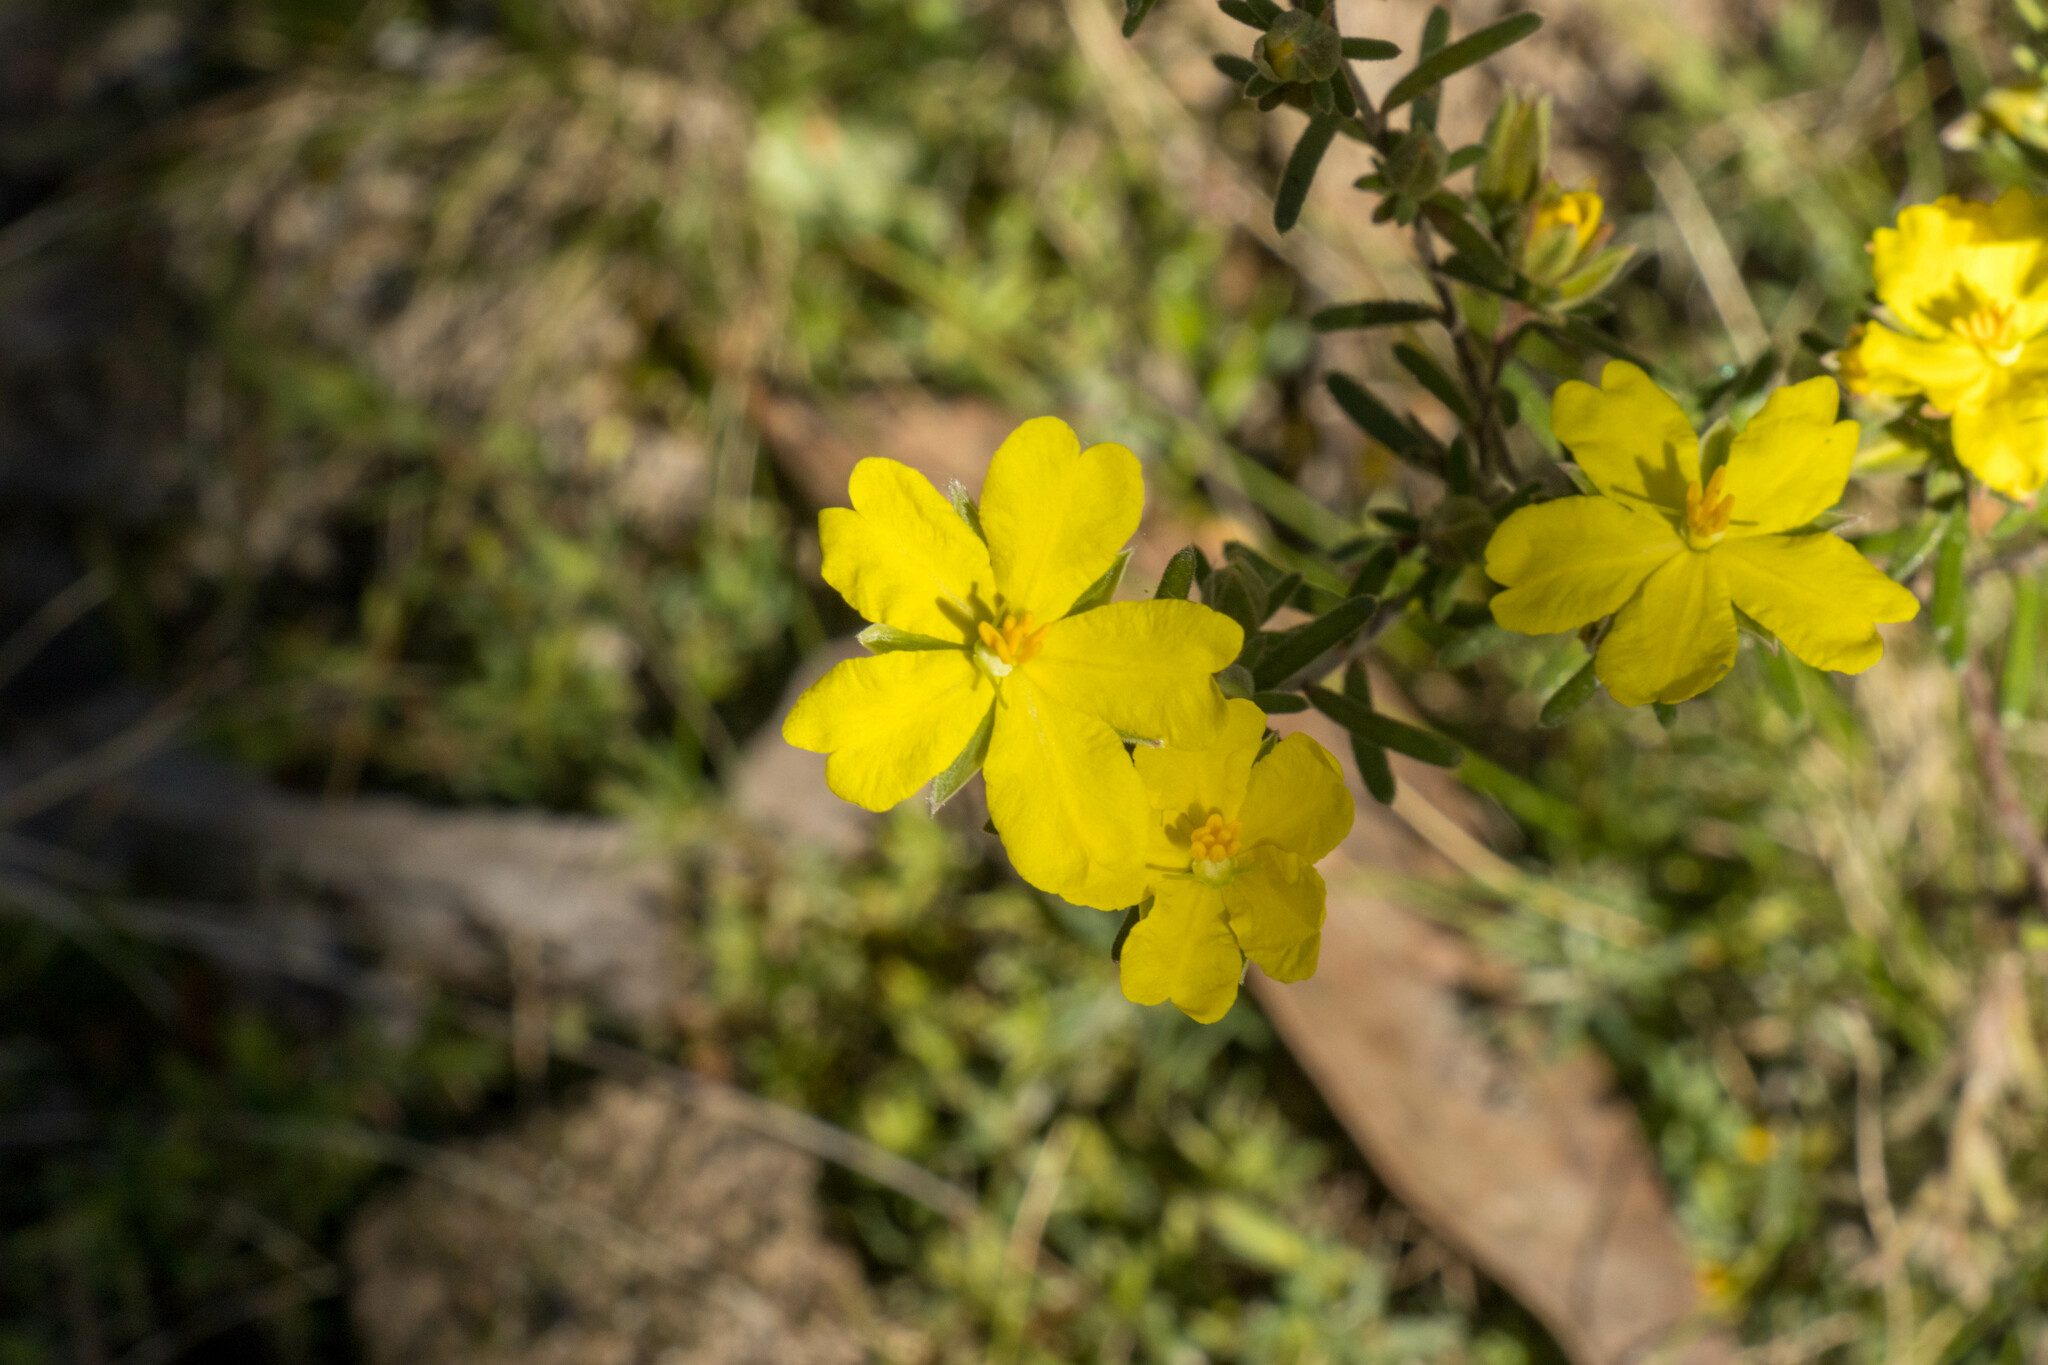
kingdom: Plantae
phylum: Tracheophyta
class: Magnoliopsida
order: Dilleniales
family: Dilleniaceae
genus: Hibbertia
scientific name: Hibbertia riparia
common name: Erect guinea-flower
